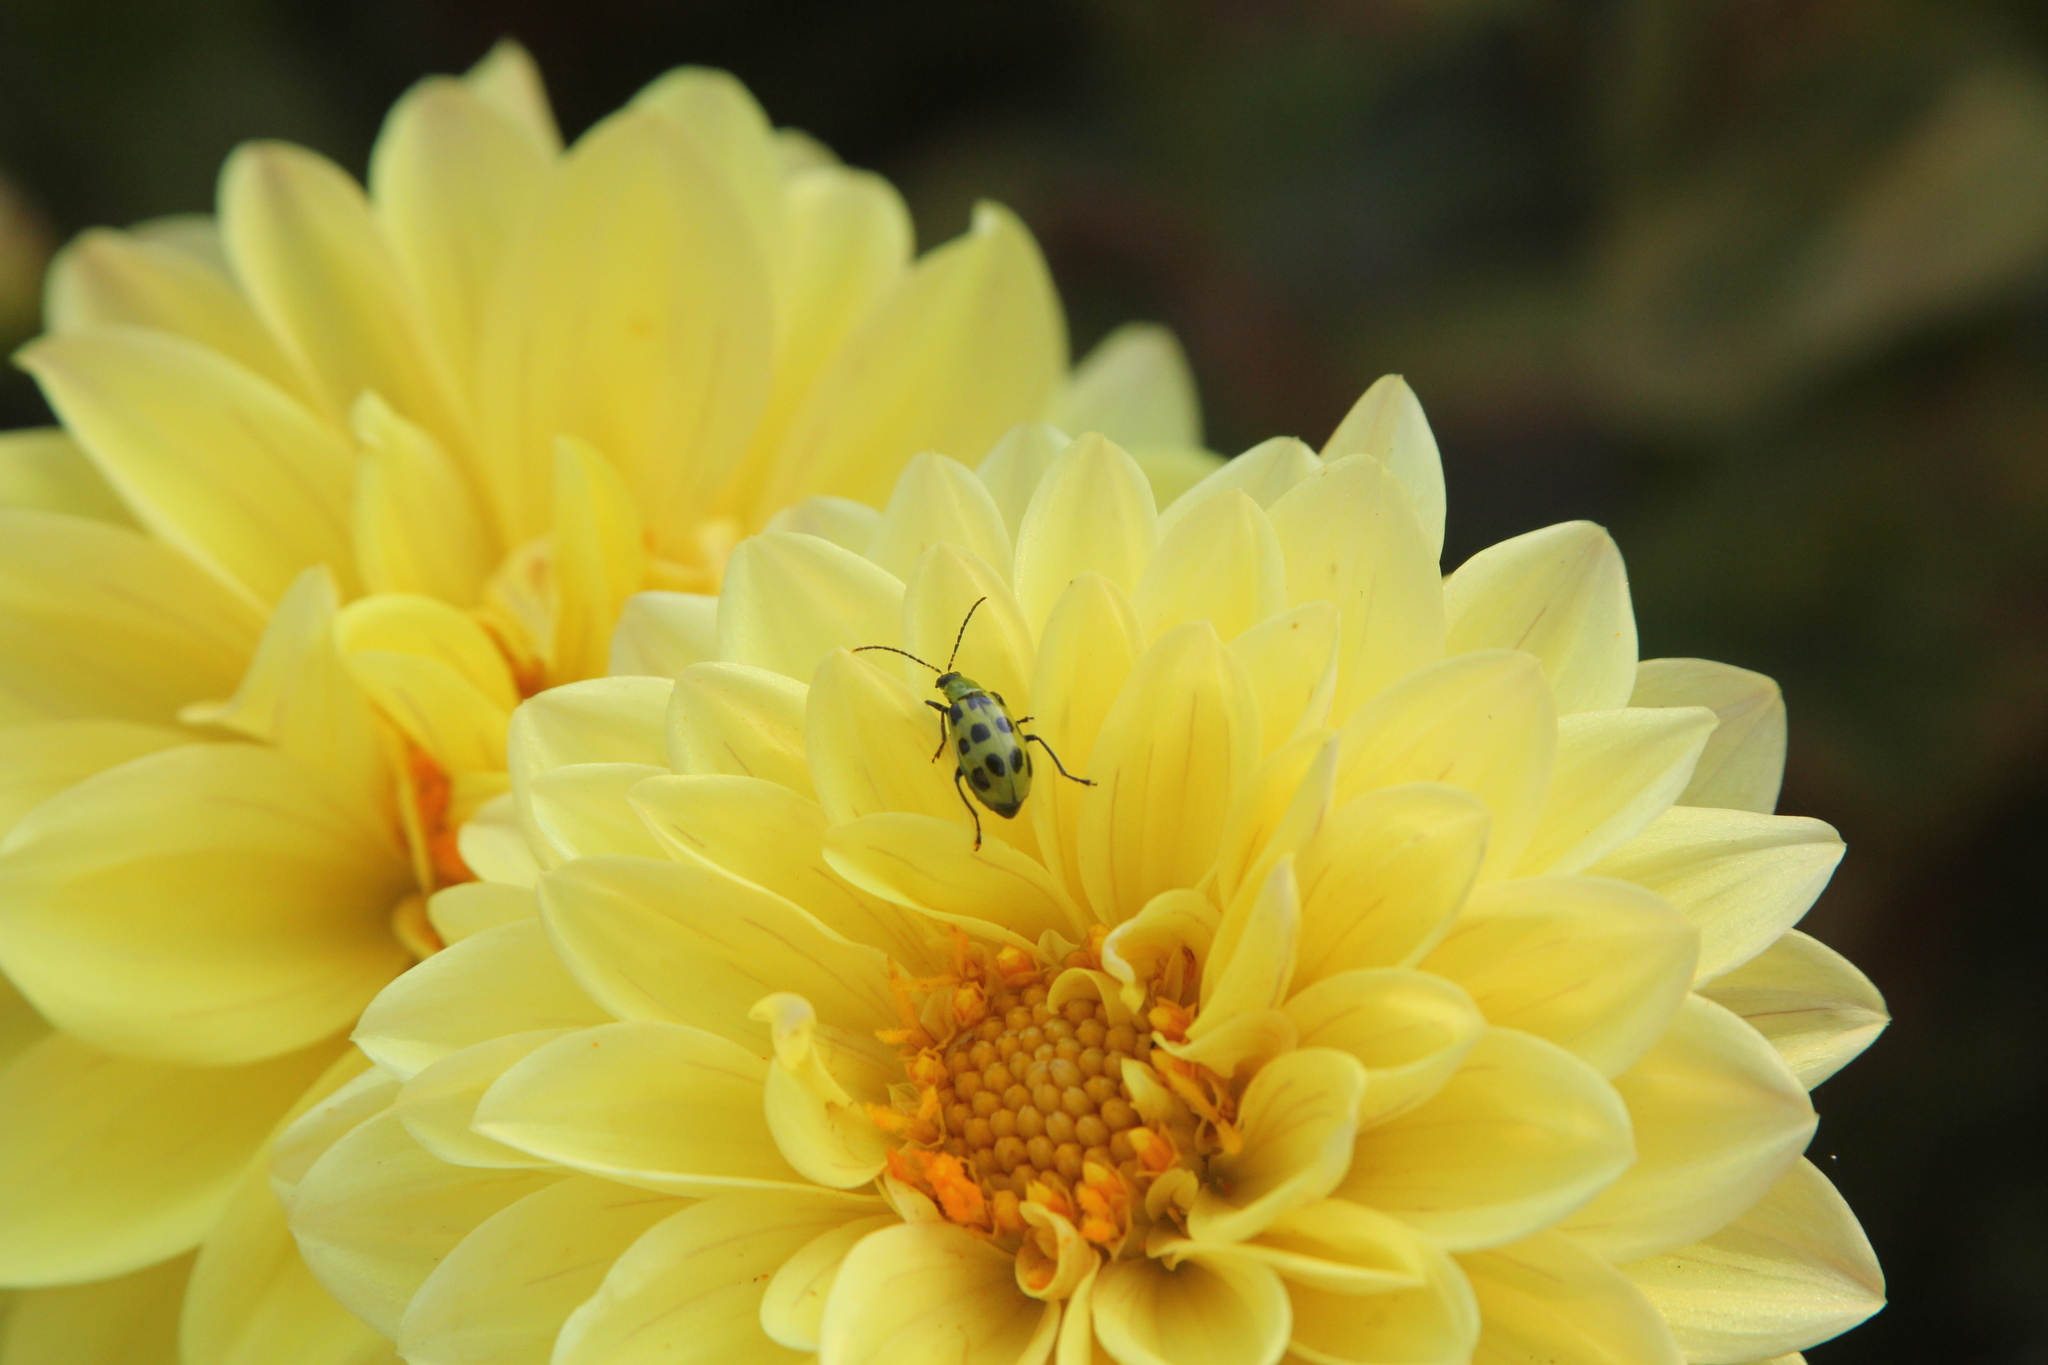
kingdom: Animalia
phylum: Arthropoda
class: Insecta
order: Coleoptera
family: Chrysomelidae
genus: Diabrotica
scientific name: Diabrotica undecimpunctata
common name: Spotted cucumber beetle
